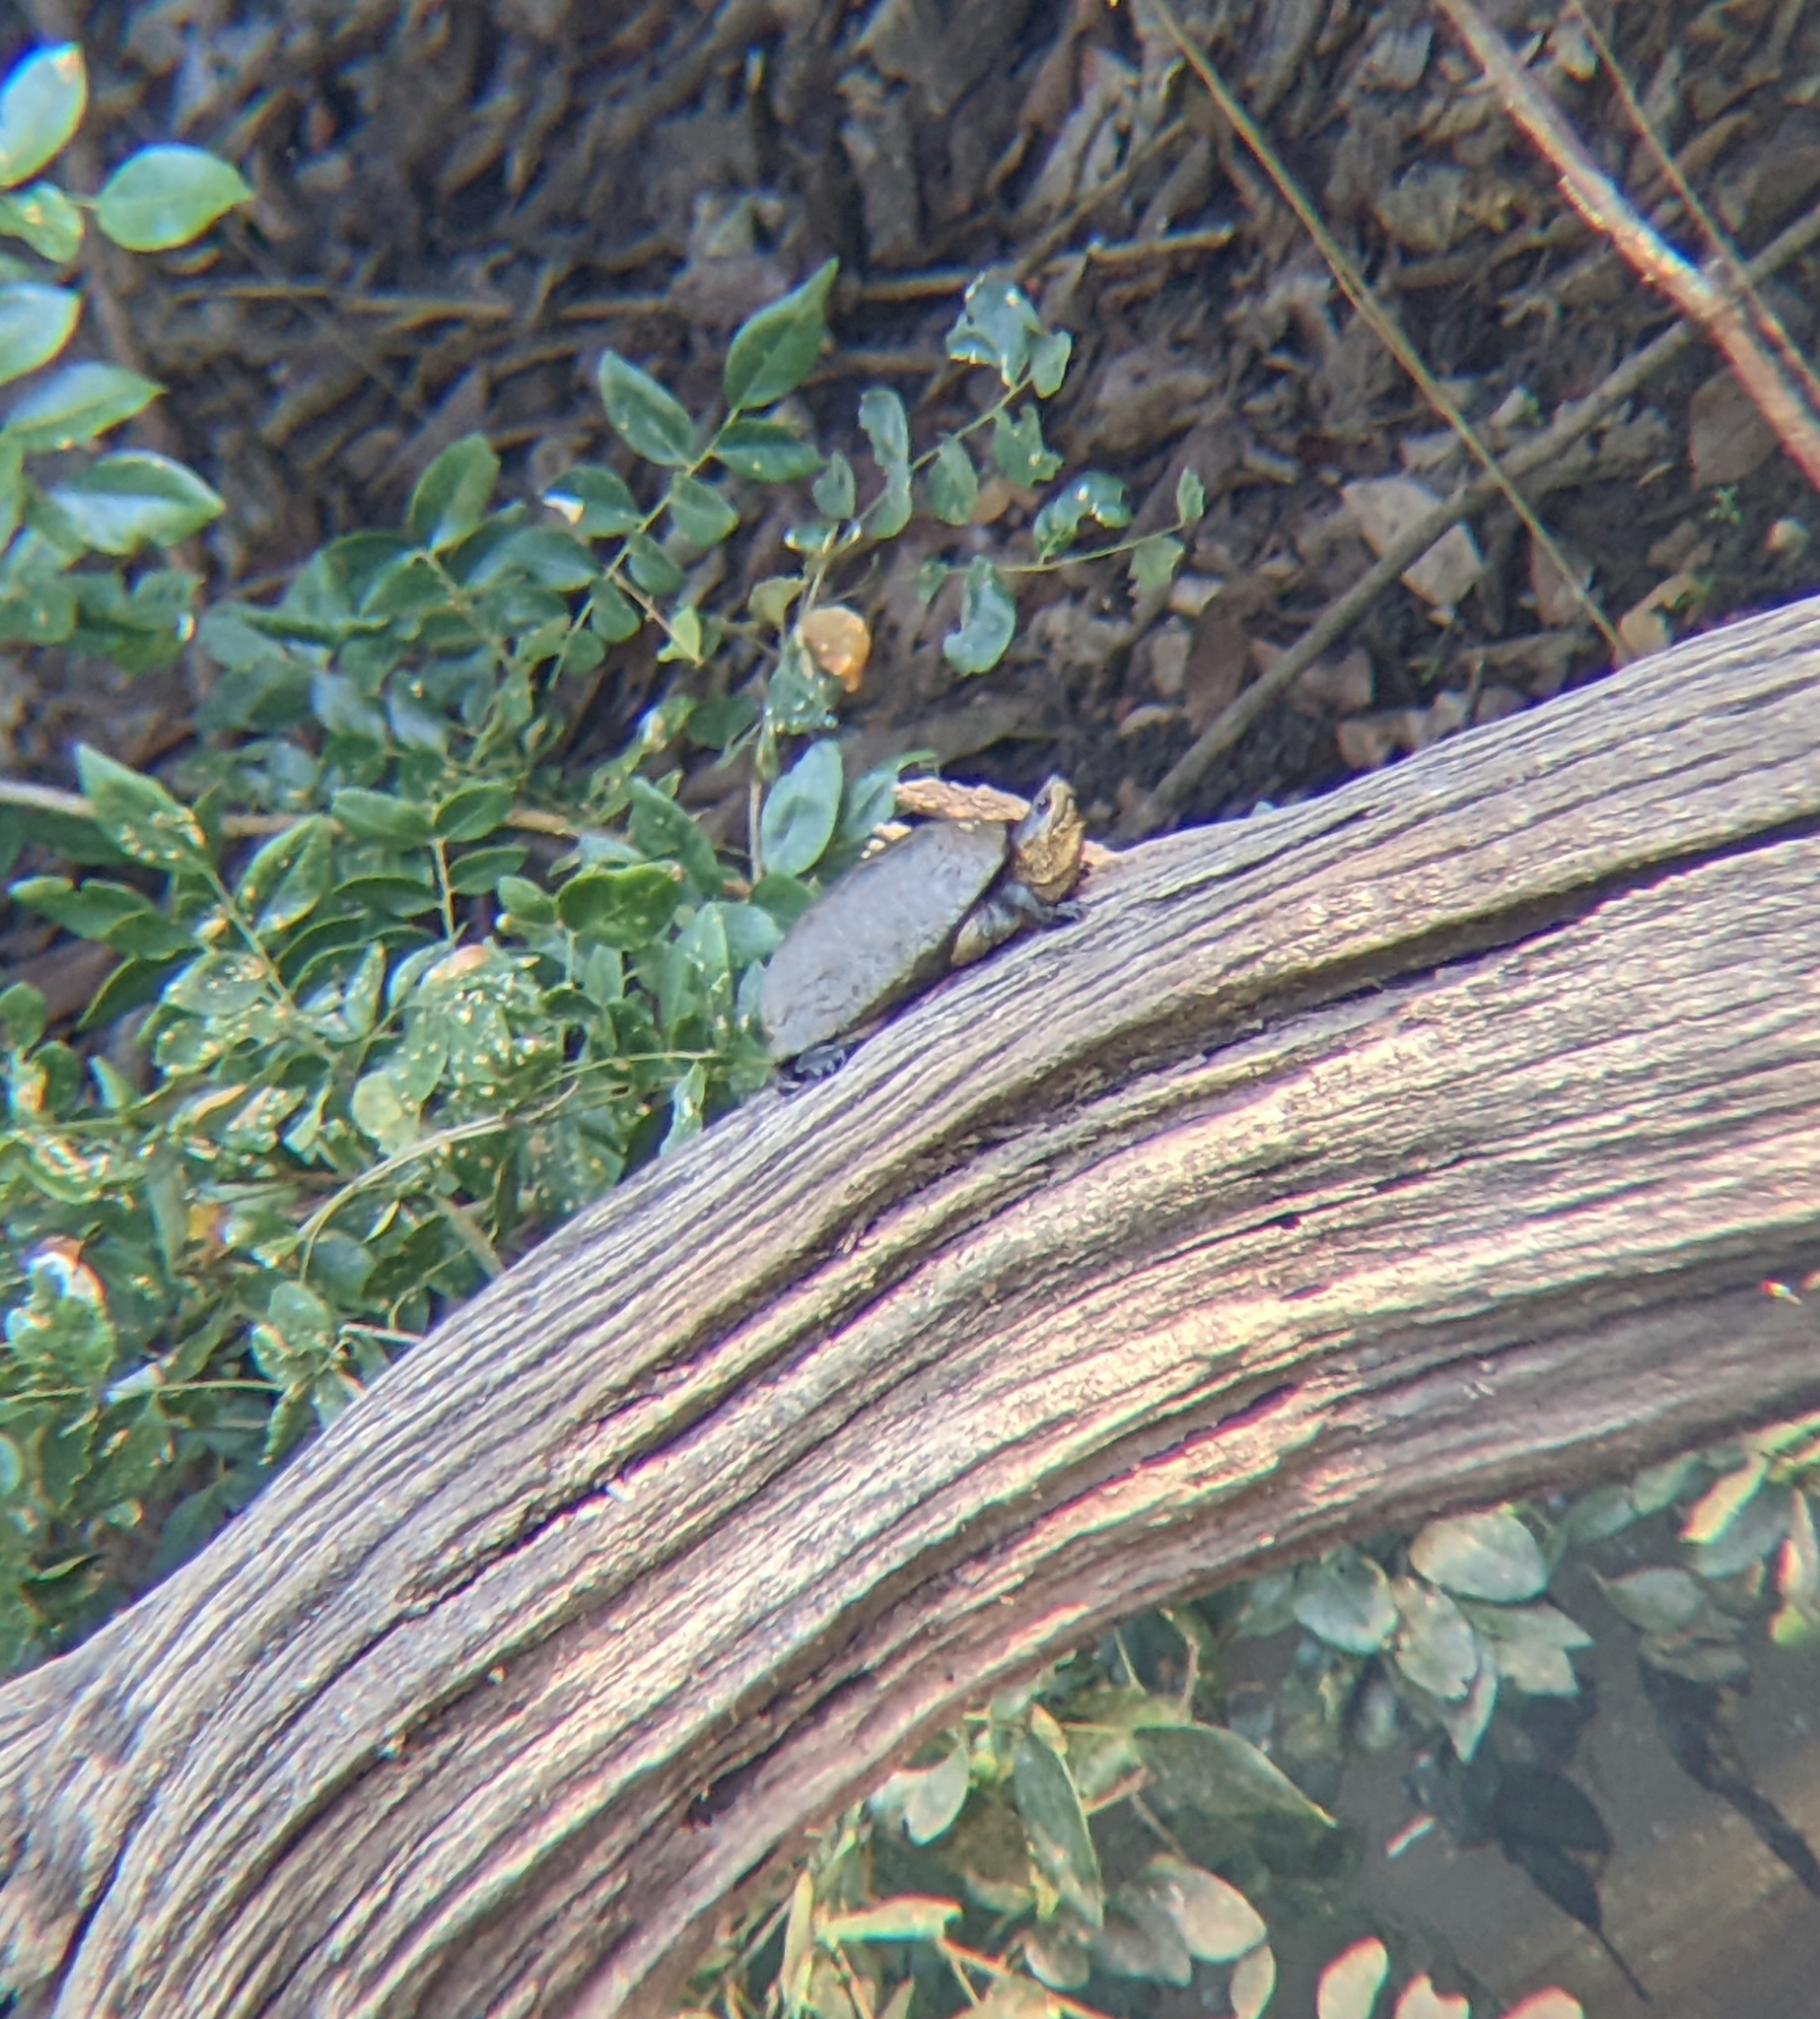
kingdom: Animalia
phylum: Chordata
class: Testudines
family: Kinosternidae
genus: Kinosternon
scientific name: Kinosternon chimalhuaca
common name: Jalisco mud turtle
